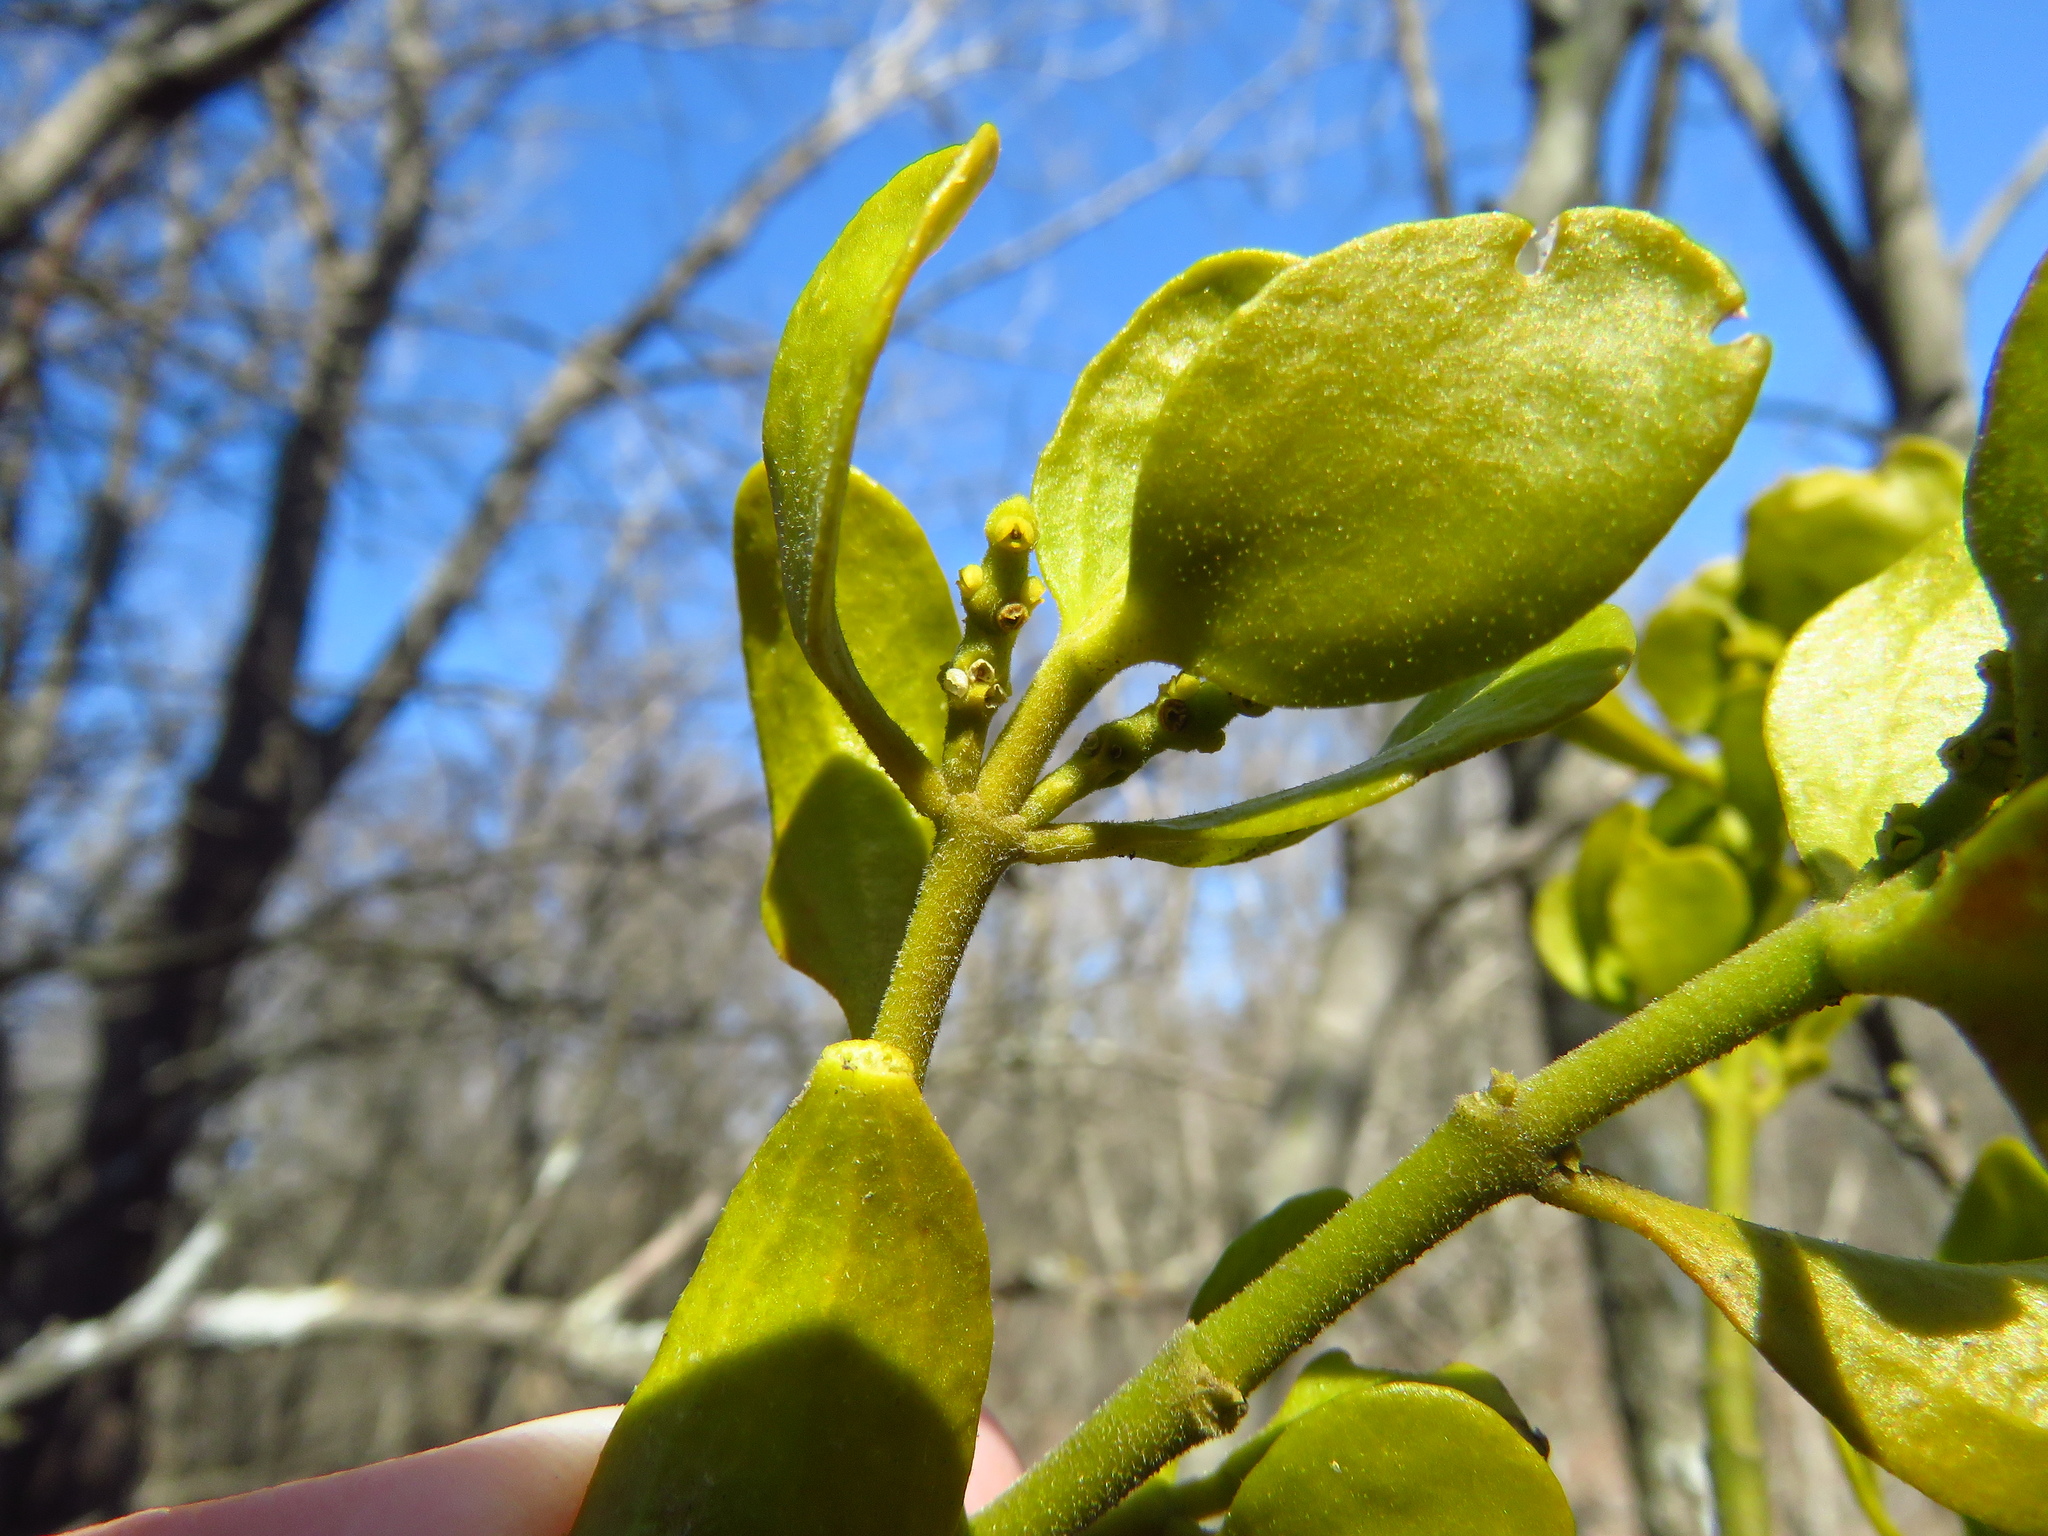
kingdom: Plantae
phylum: Tracheophyta
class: Magnoliopsida
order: Santalales
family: Viscaceae
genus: Phoradendron
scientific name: Phoradendron leucarpum
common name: Pacific mistletoe
